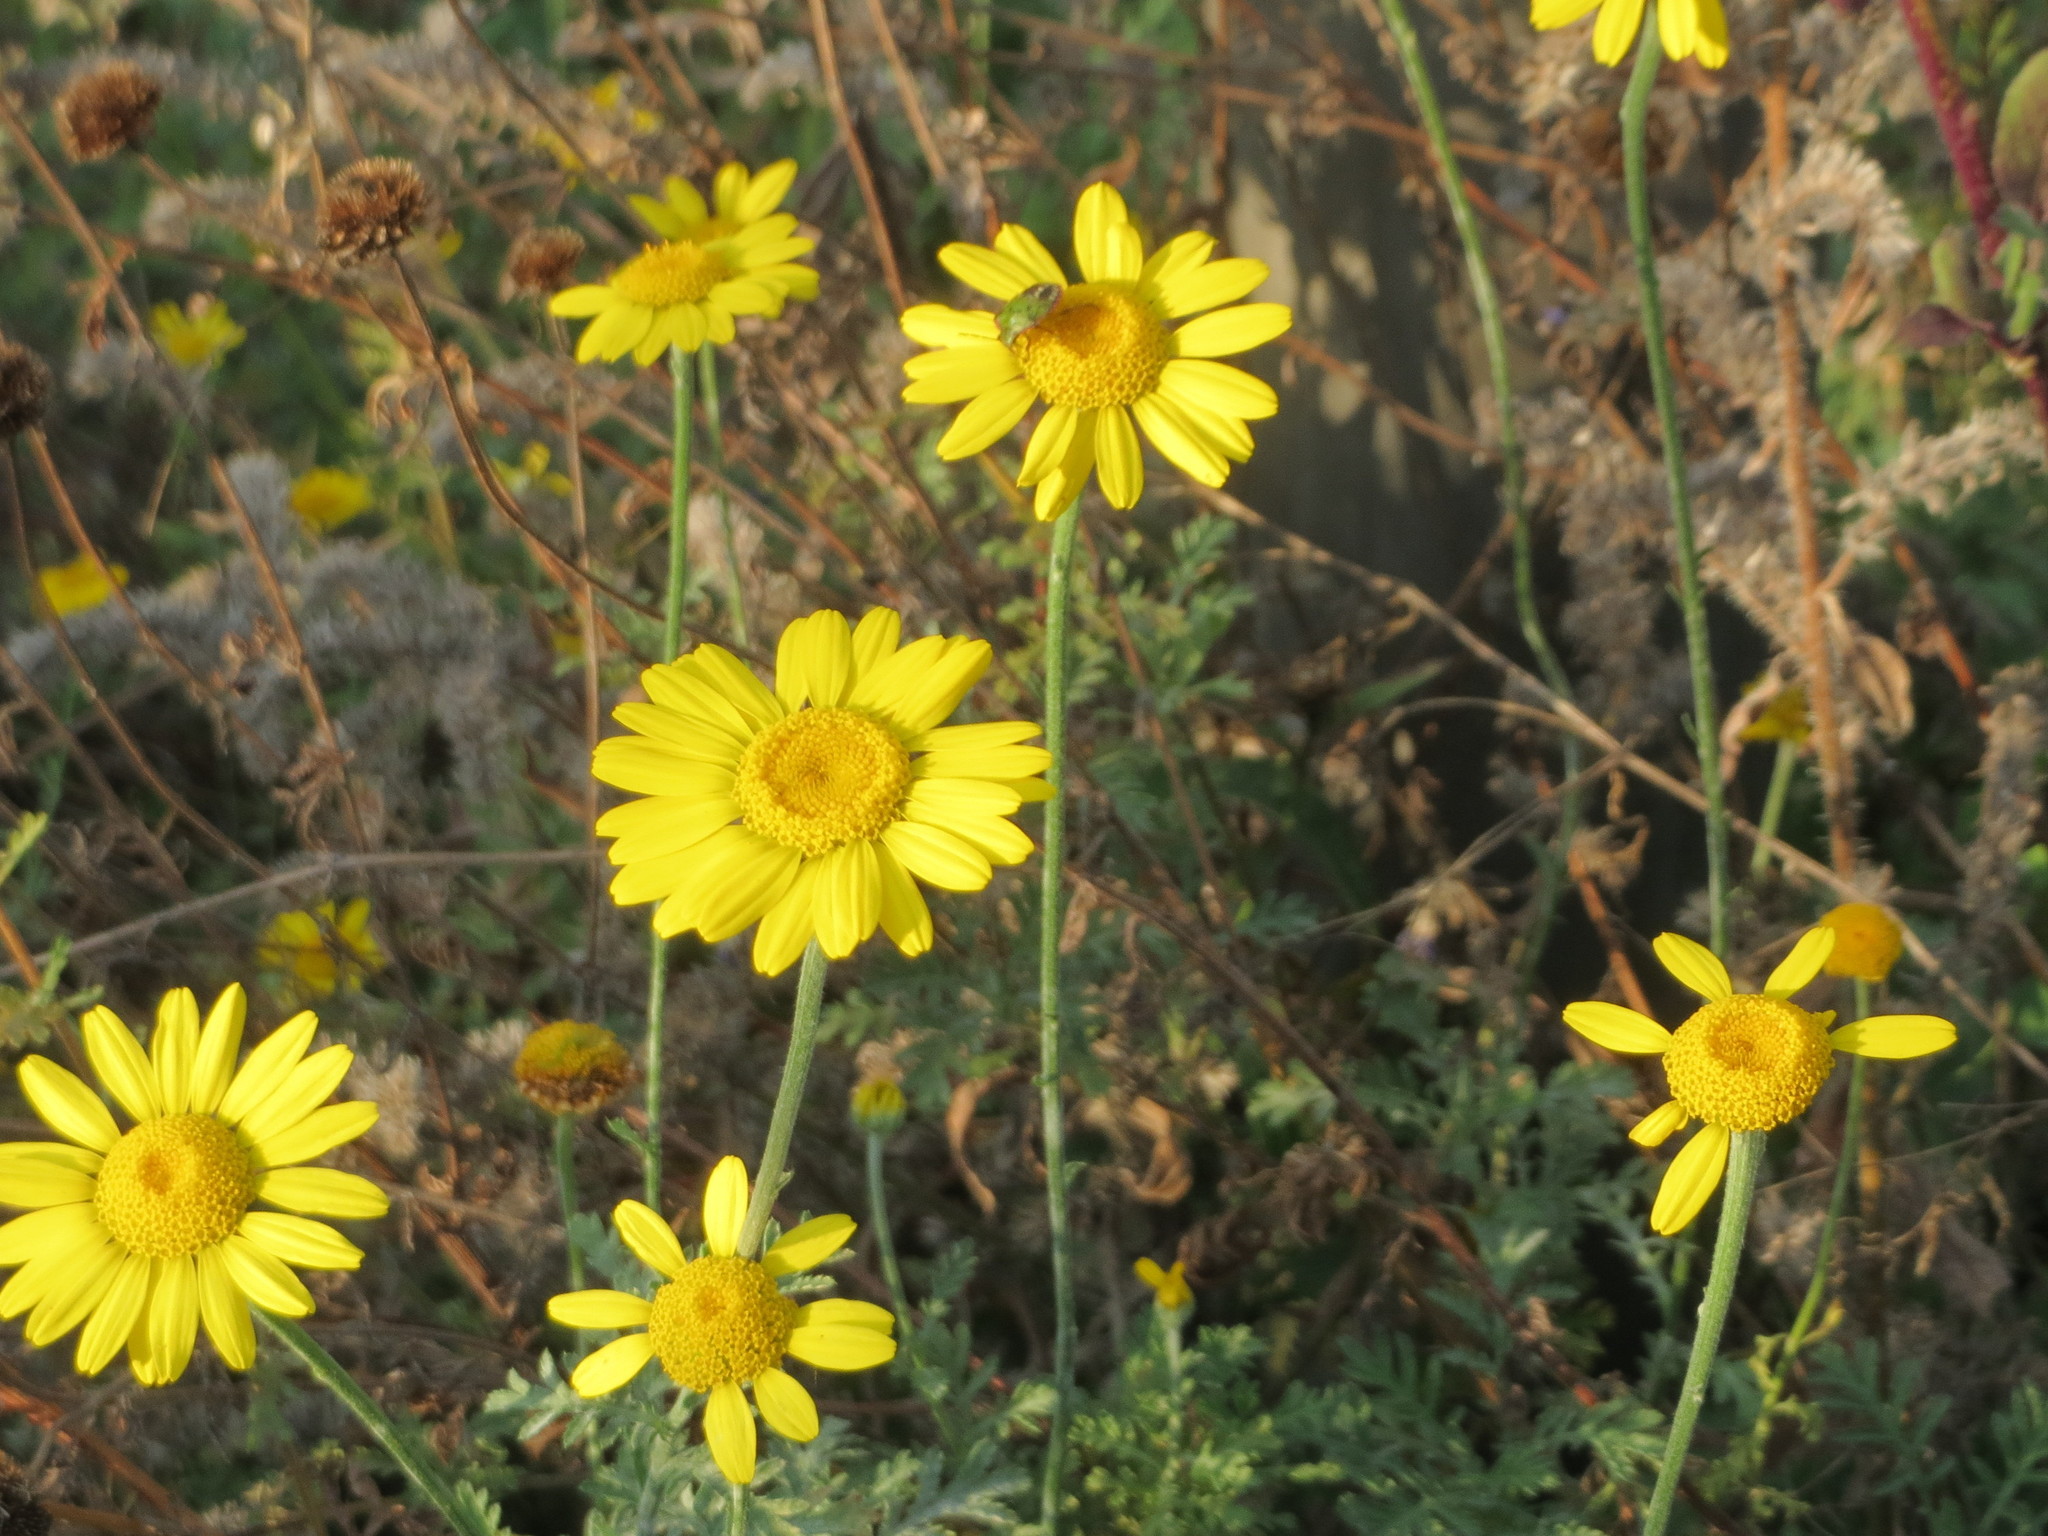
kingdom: Plantae
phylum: Tracheophyta
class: Magnoliopsida
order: Asterales
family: Asteraceae
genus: Cota
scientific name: Cota tinctoria
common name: Golden chamomile
